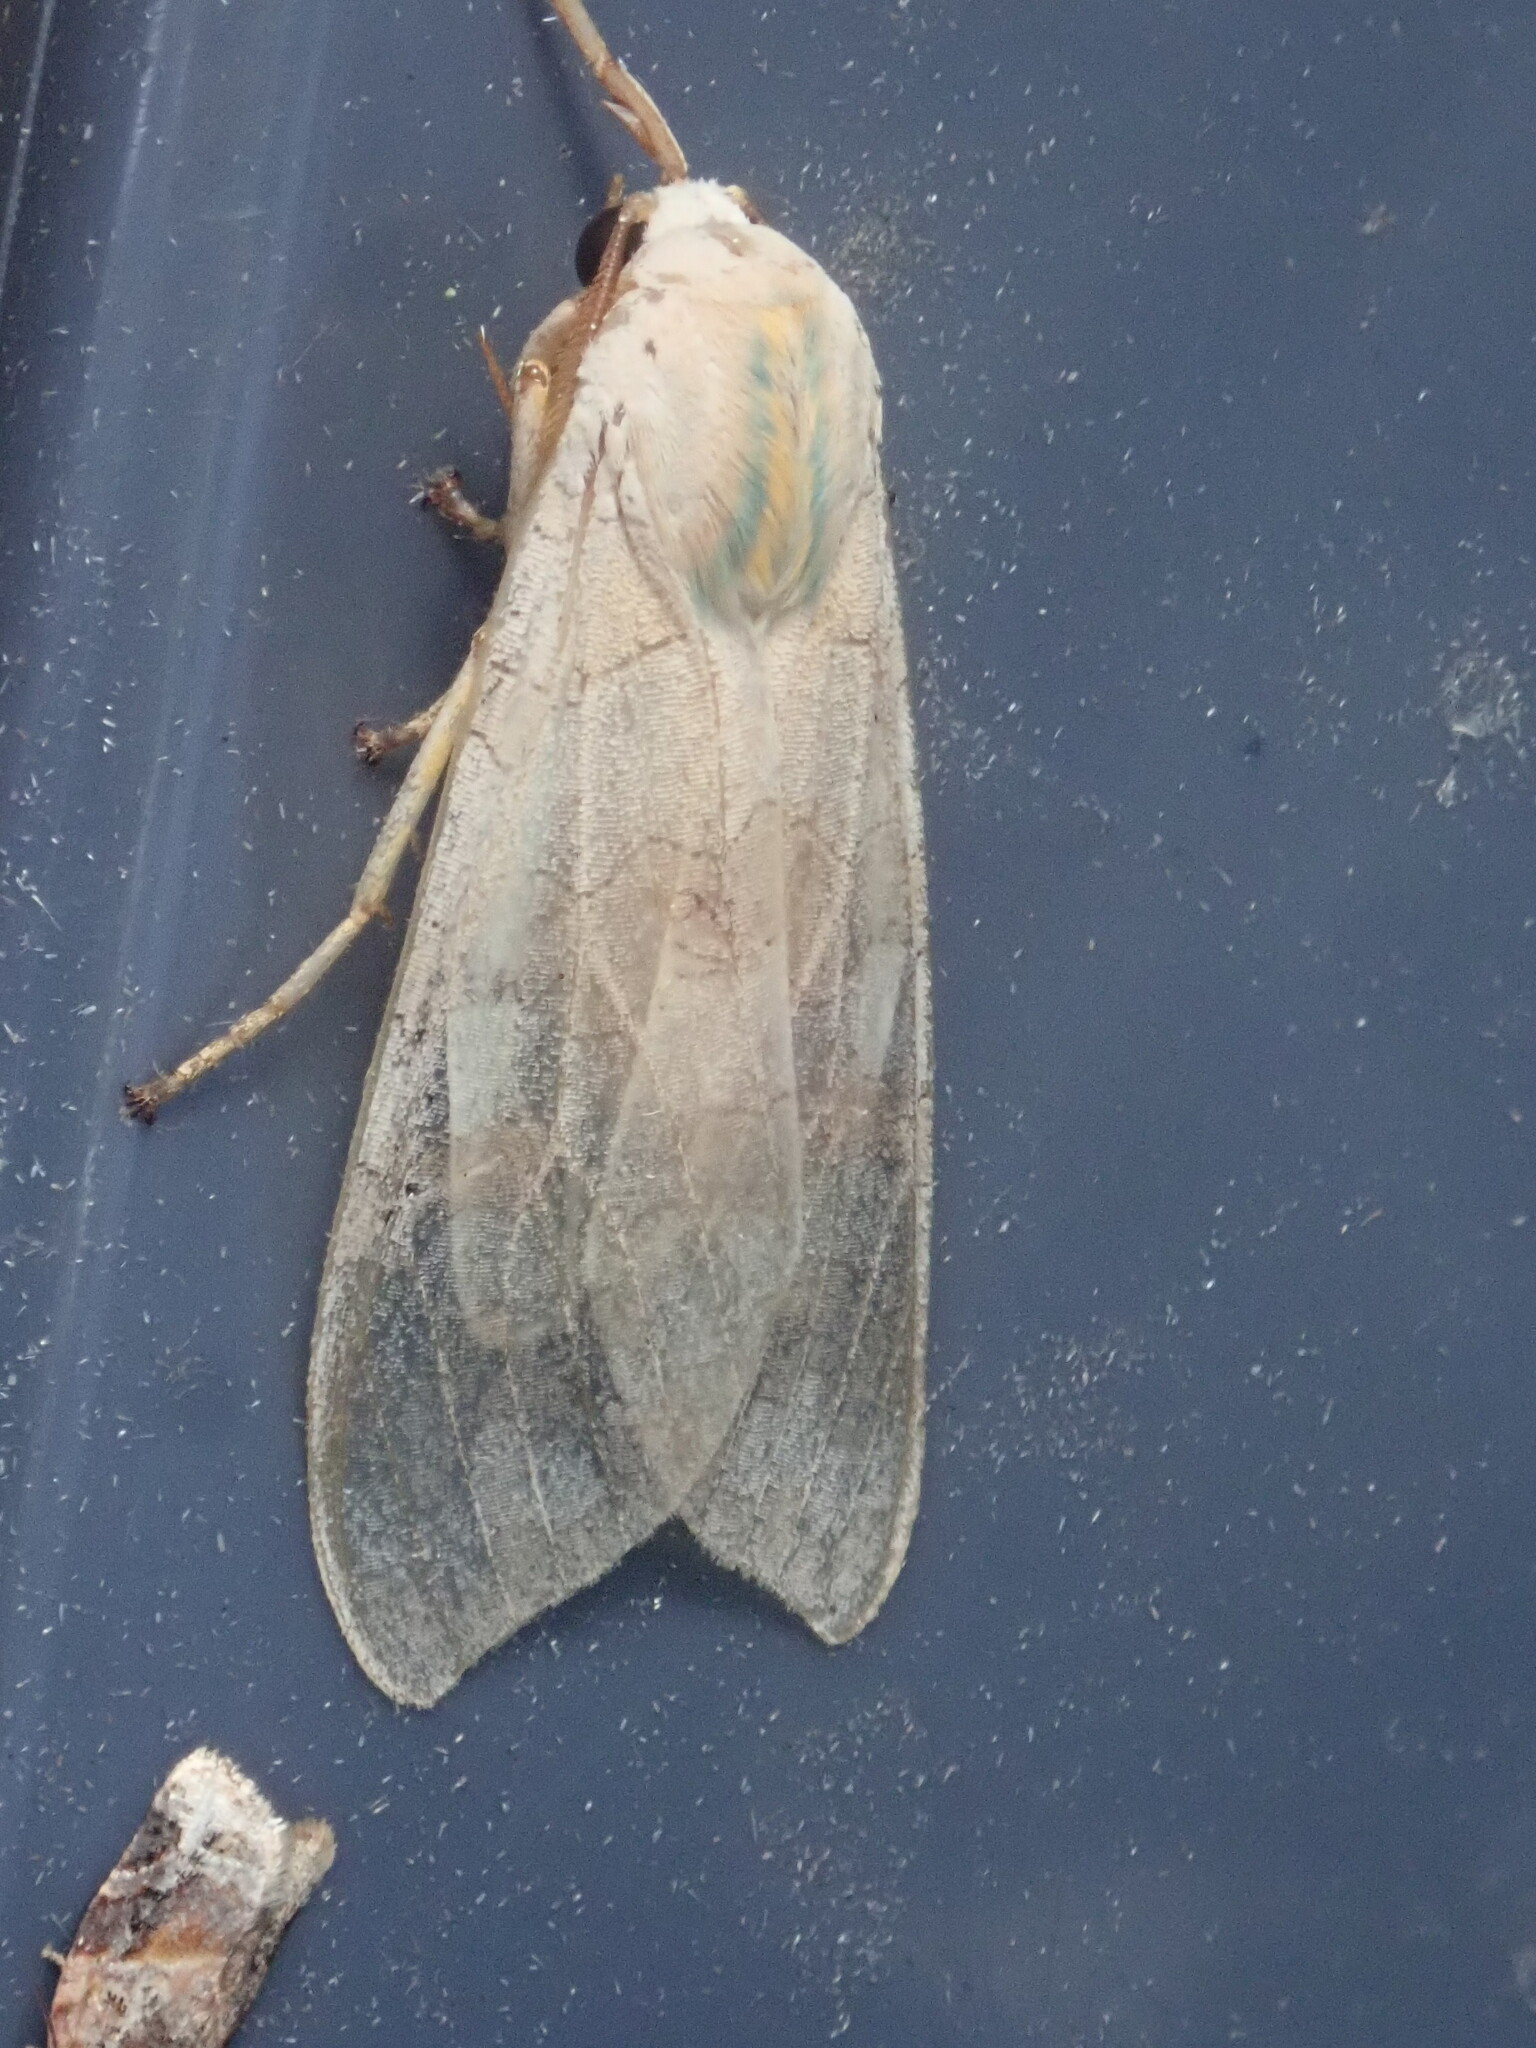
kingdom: Animalia
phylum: Arthropoda
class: Insecta
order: Lepidoptera
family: Erebidae
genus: Halysidota
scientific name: Halysidota
